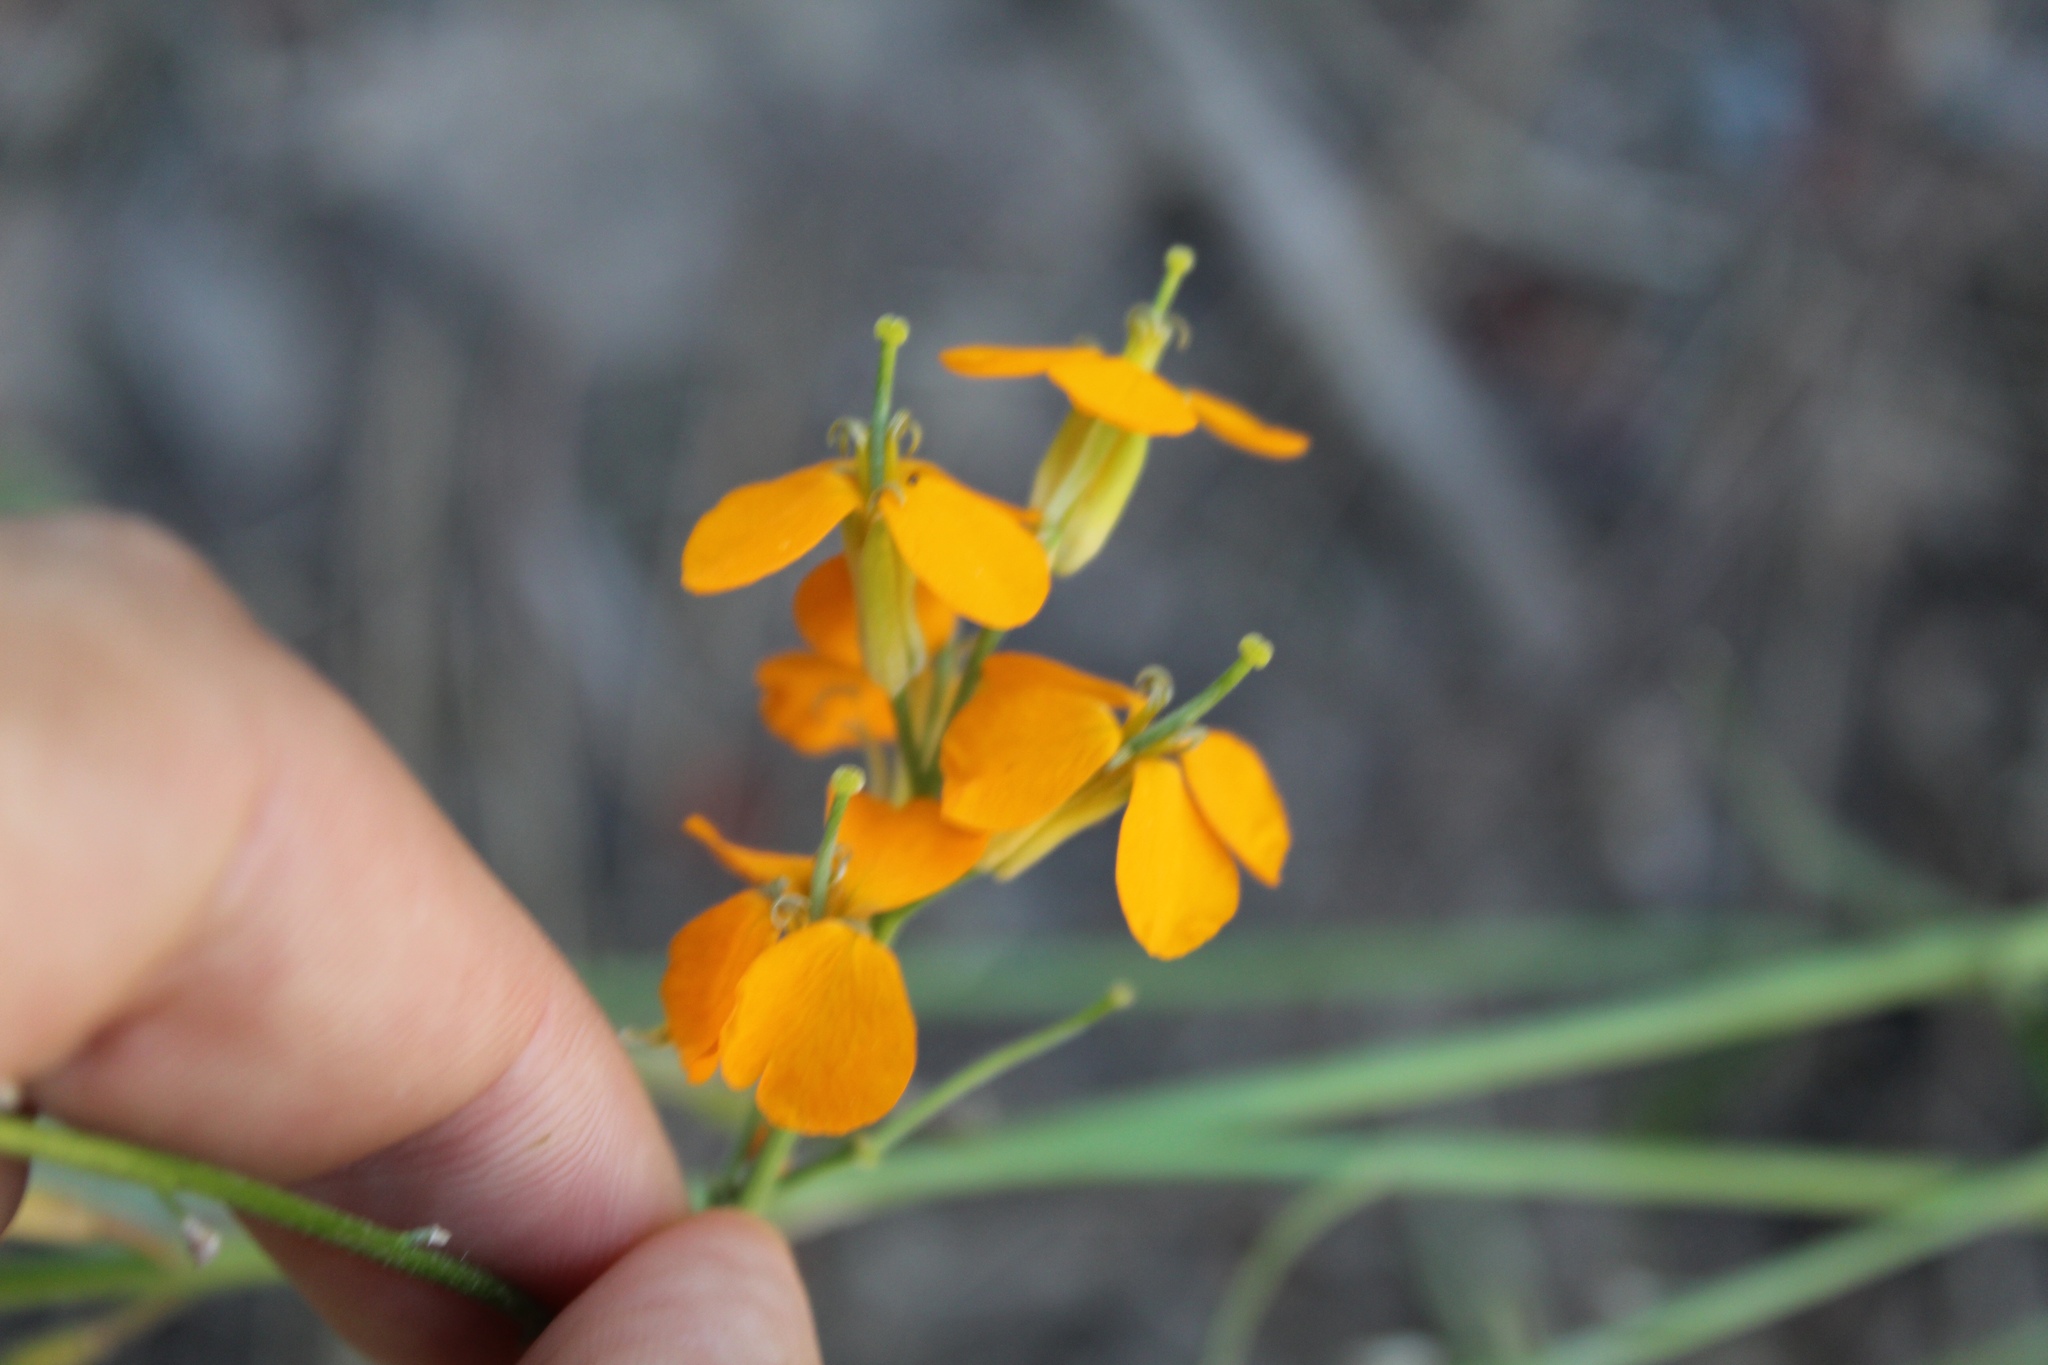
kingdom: Plantae
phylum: Tracheophyta
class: Magnoliopsida
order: Brassicales
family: Brassicaceae
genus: Erysimum
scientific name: Erysimum capitatum
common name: Western wallflower
